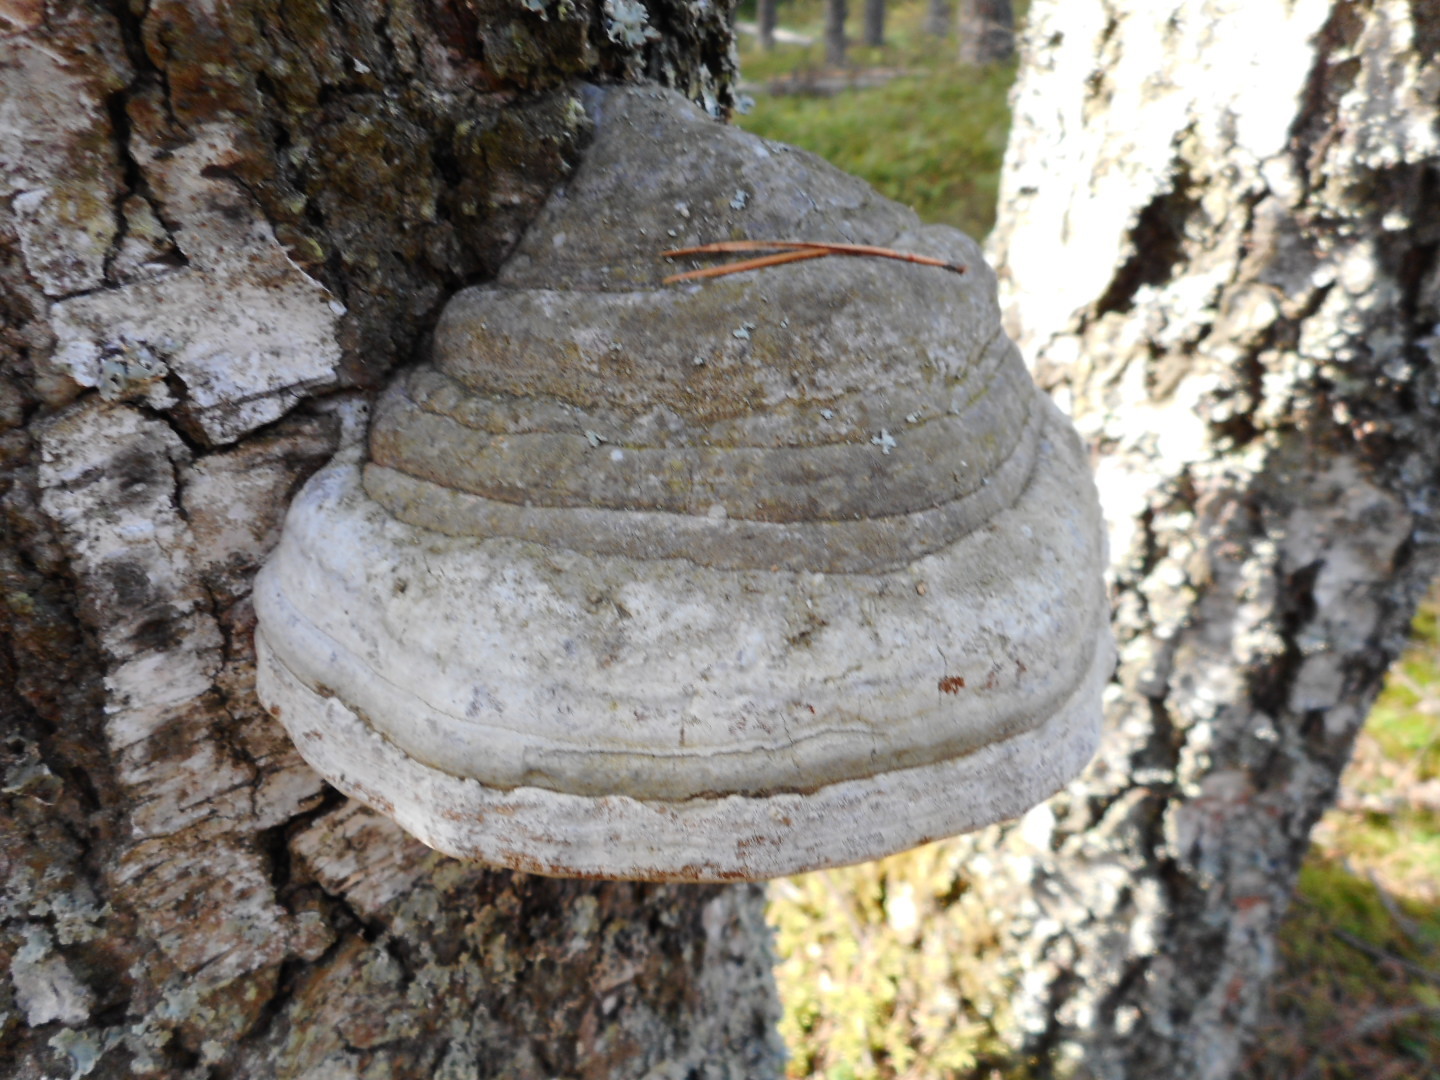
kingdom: Fungi
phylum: Basidiomycota
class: Agaricomycetes
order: Polyporales
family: Polyporaceae
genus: Fomes
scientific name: Fomes fomentarius
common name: Hoof fungus
